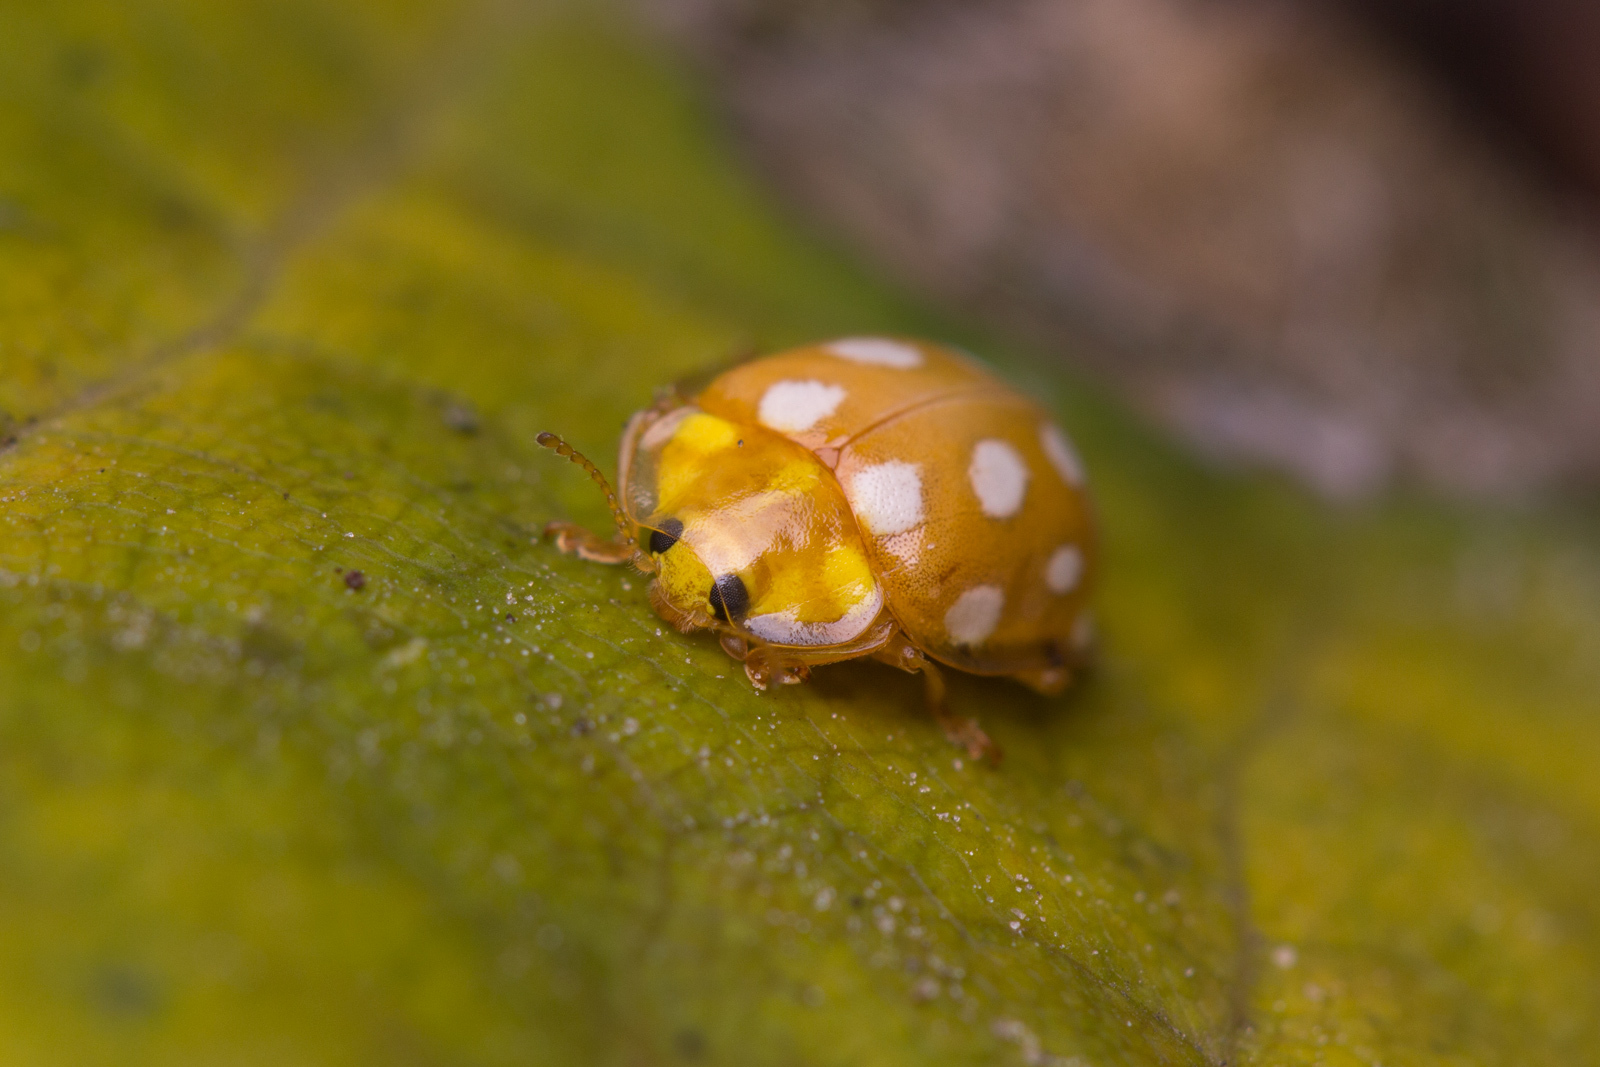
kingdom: Animalia
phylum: Arthropoda
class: Insecta
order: Coleoptera
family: Coccinellidae
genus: Halyzia
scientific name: Halyzia sedecimguttata
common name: Orange ladybird
